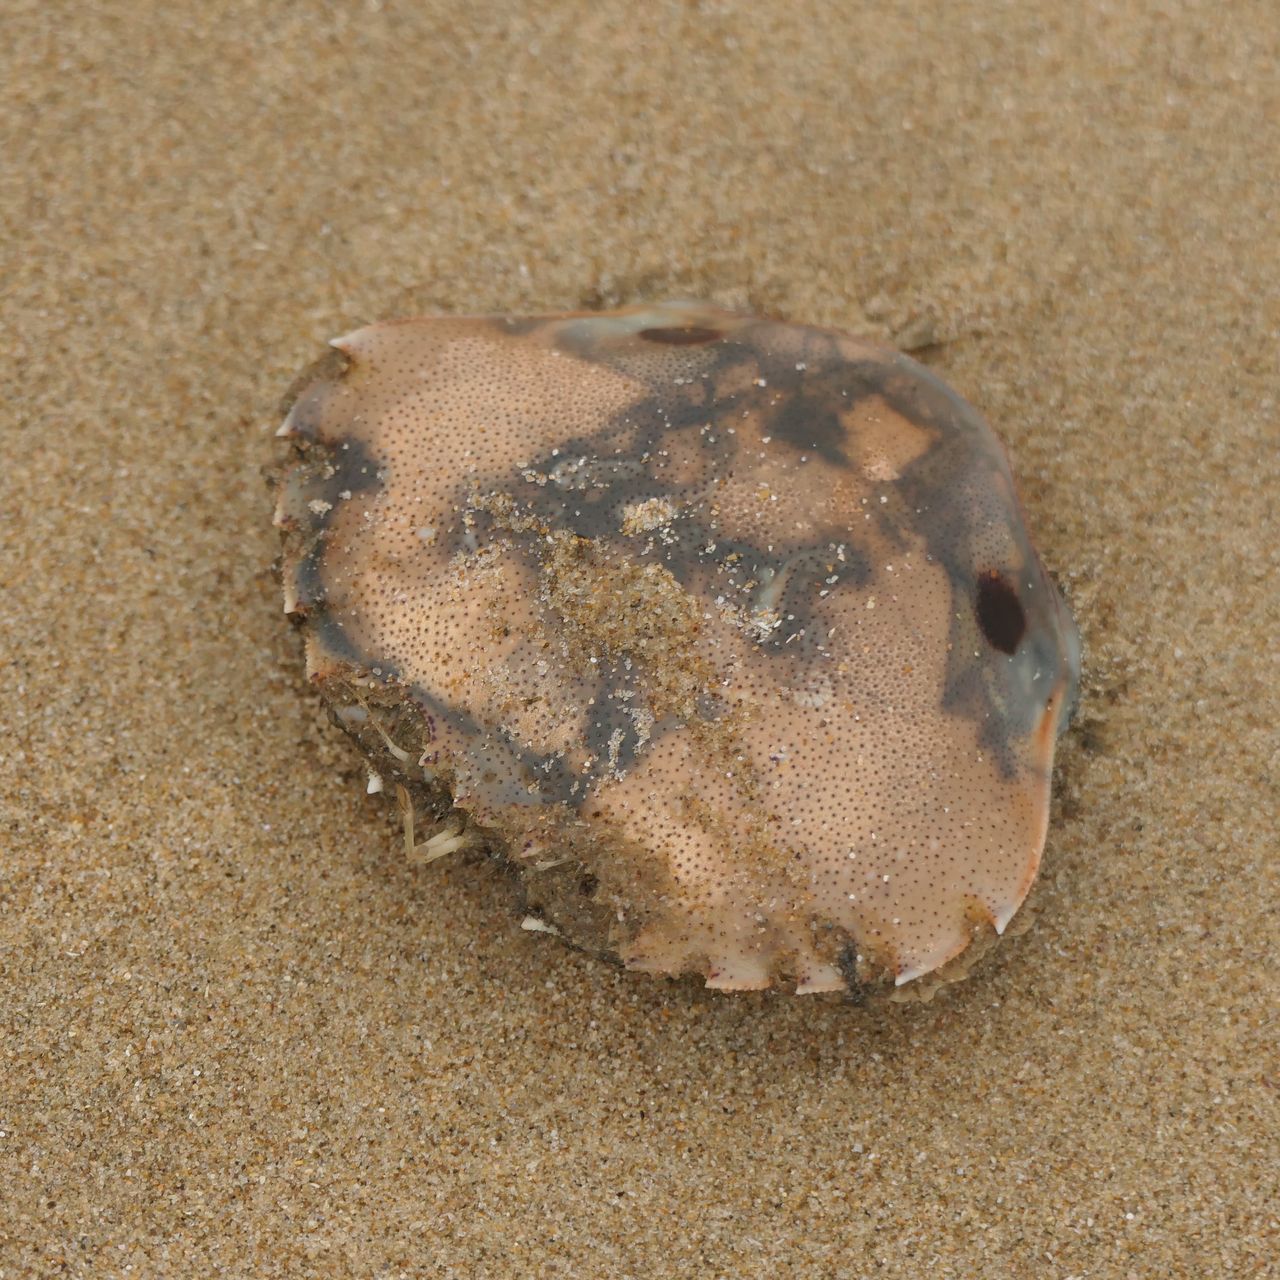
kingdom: Animalia
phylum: Arthropoda
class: Malacostraca
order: Decapoda
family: Ovalipidae
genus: Ovalipes
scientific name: Ovalipes australiensis
